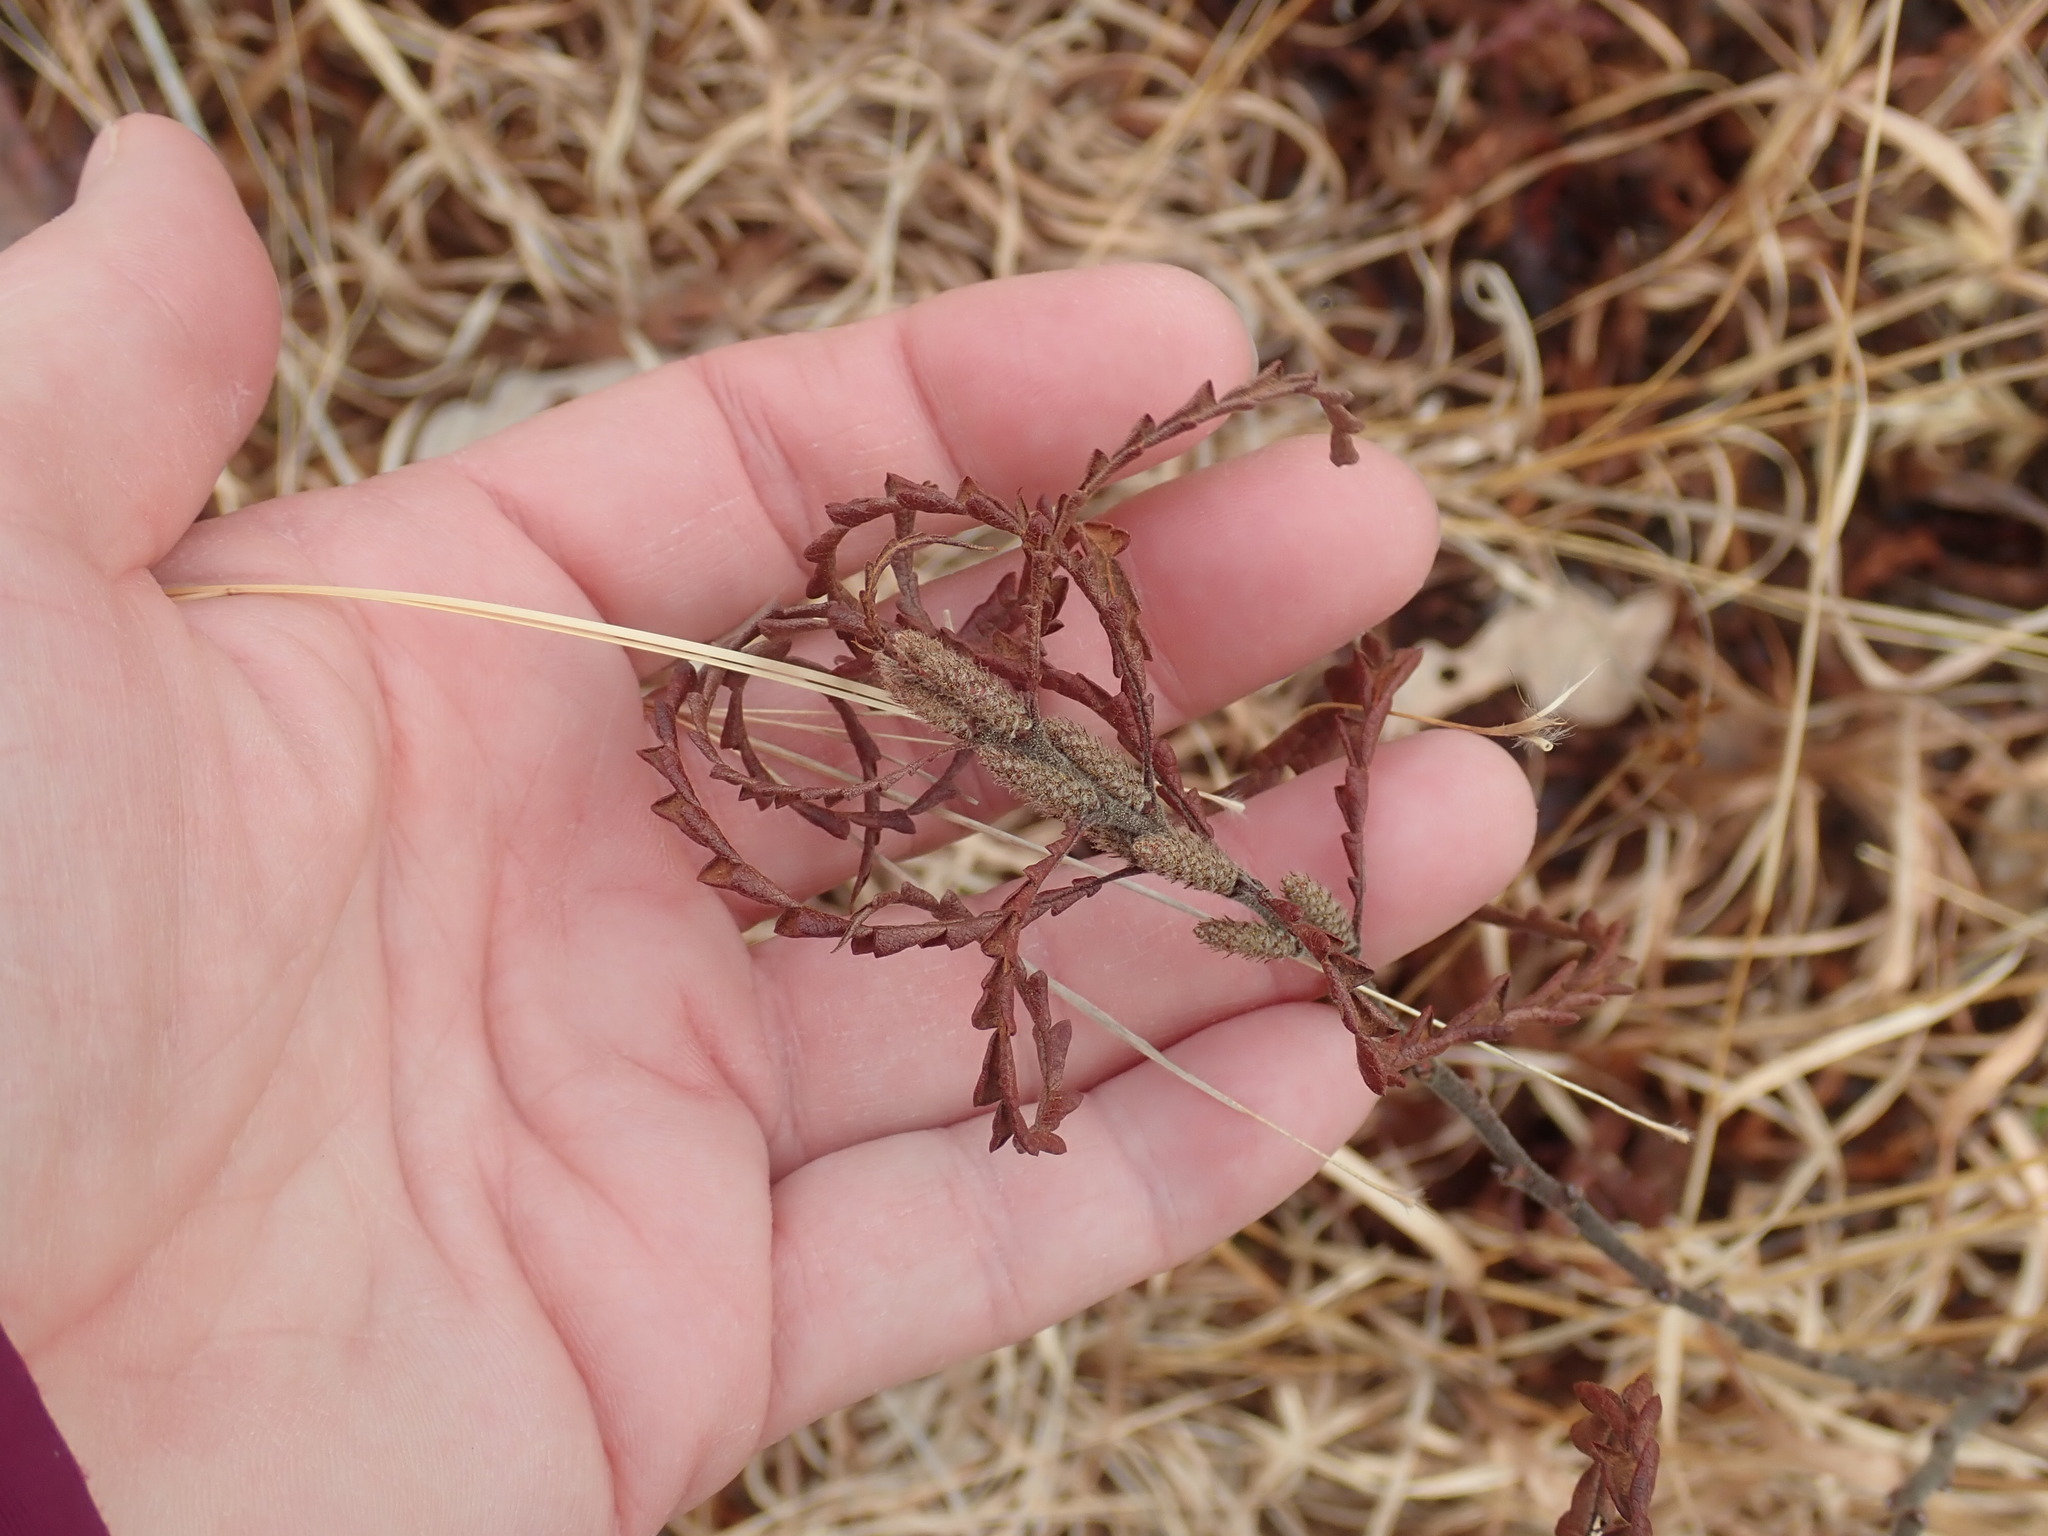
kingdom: Plantae
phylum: Tracheophyta
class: Magnoliopsida
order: Fagales
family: Myricaceae
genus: Comptonia
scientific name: Comptonia peregrina
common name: Sweet-fern
